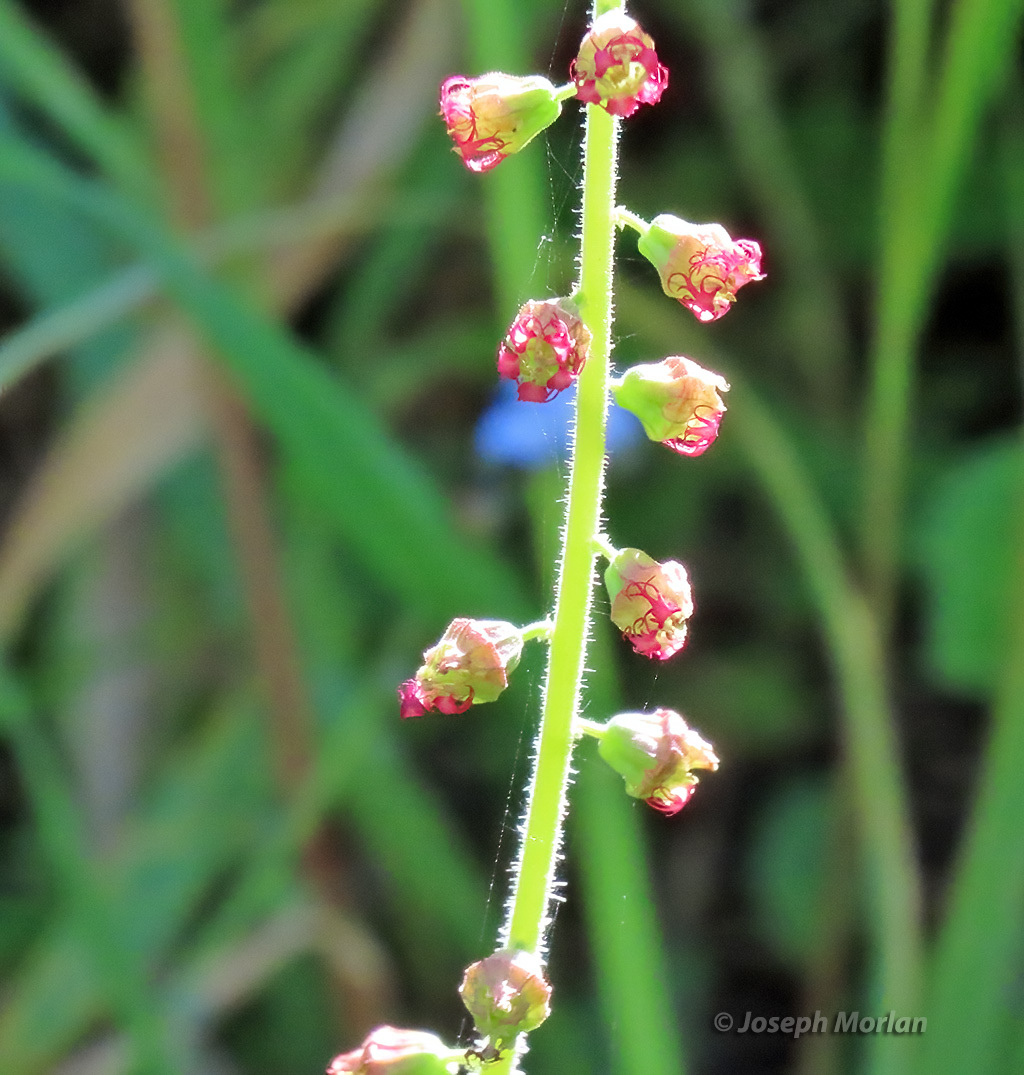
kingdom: Plantae
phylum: Tracheophyta
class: Magnoliopsida
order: Saxifragales
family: Saxifragaceae
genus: Tellima
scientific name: Tellima grandiflora
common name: Fringecups
